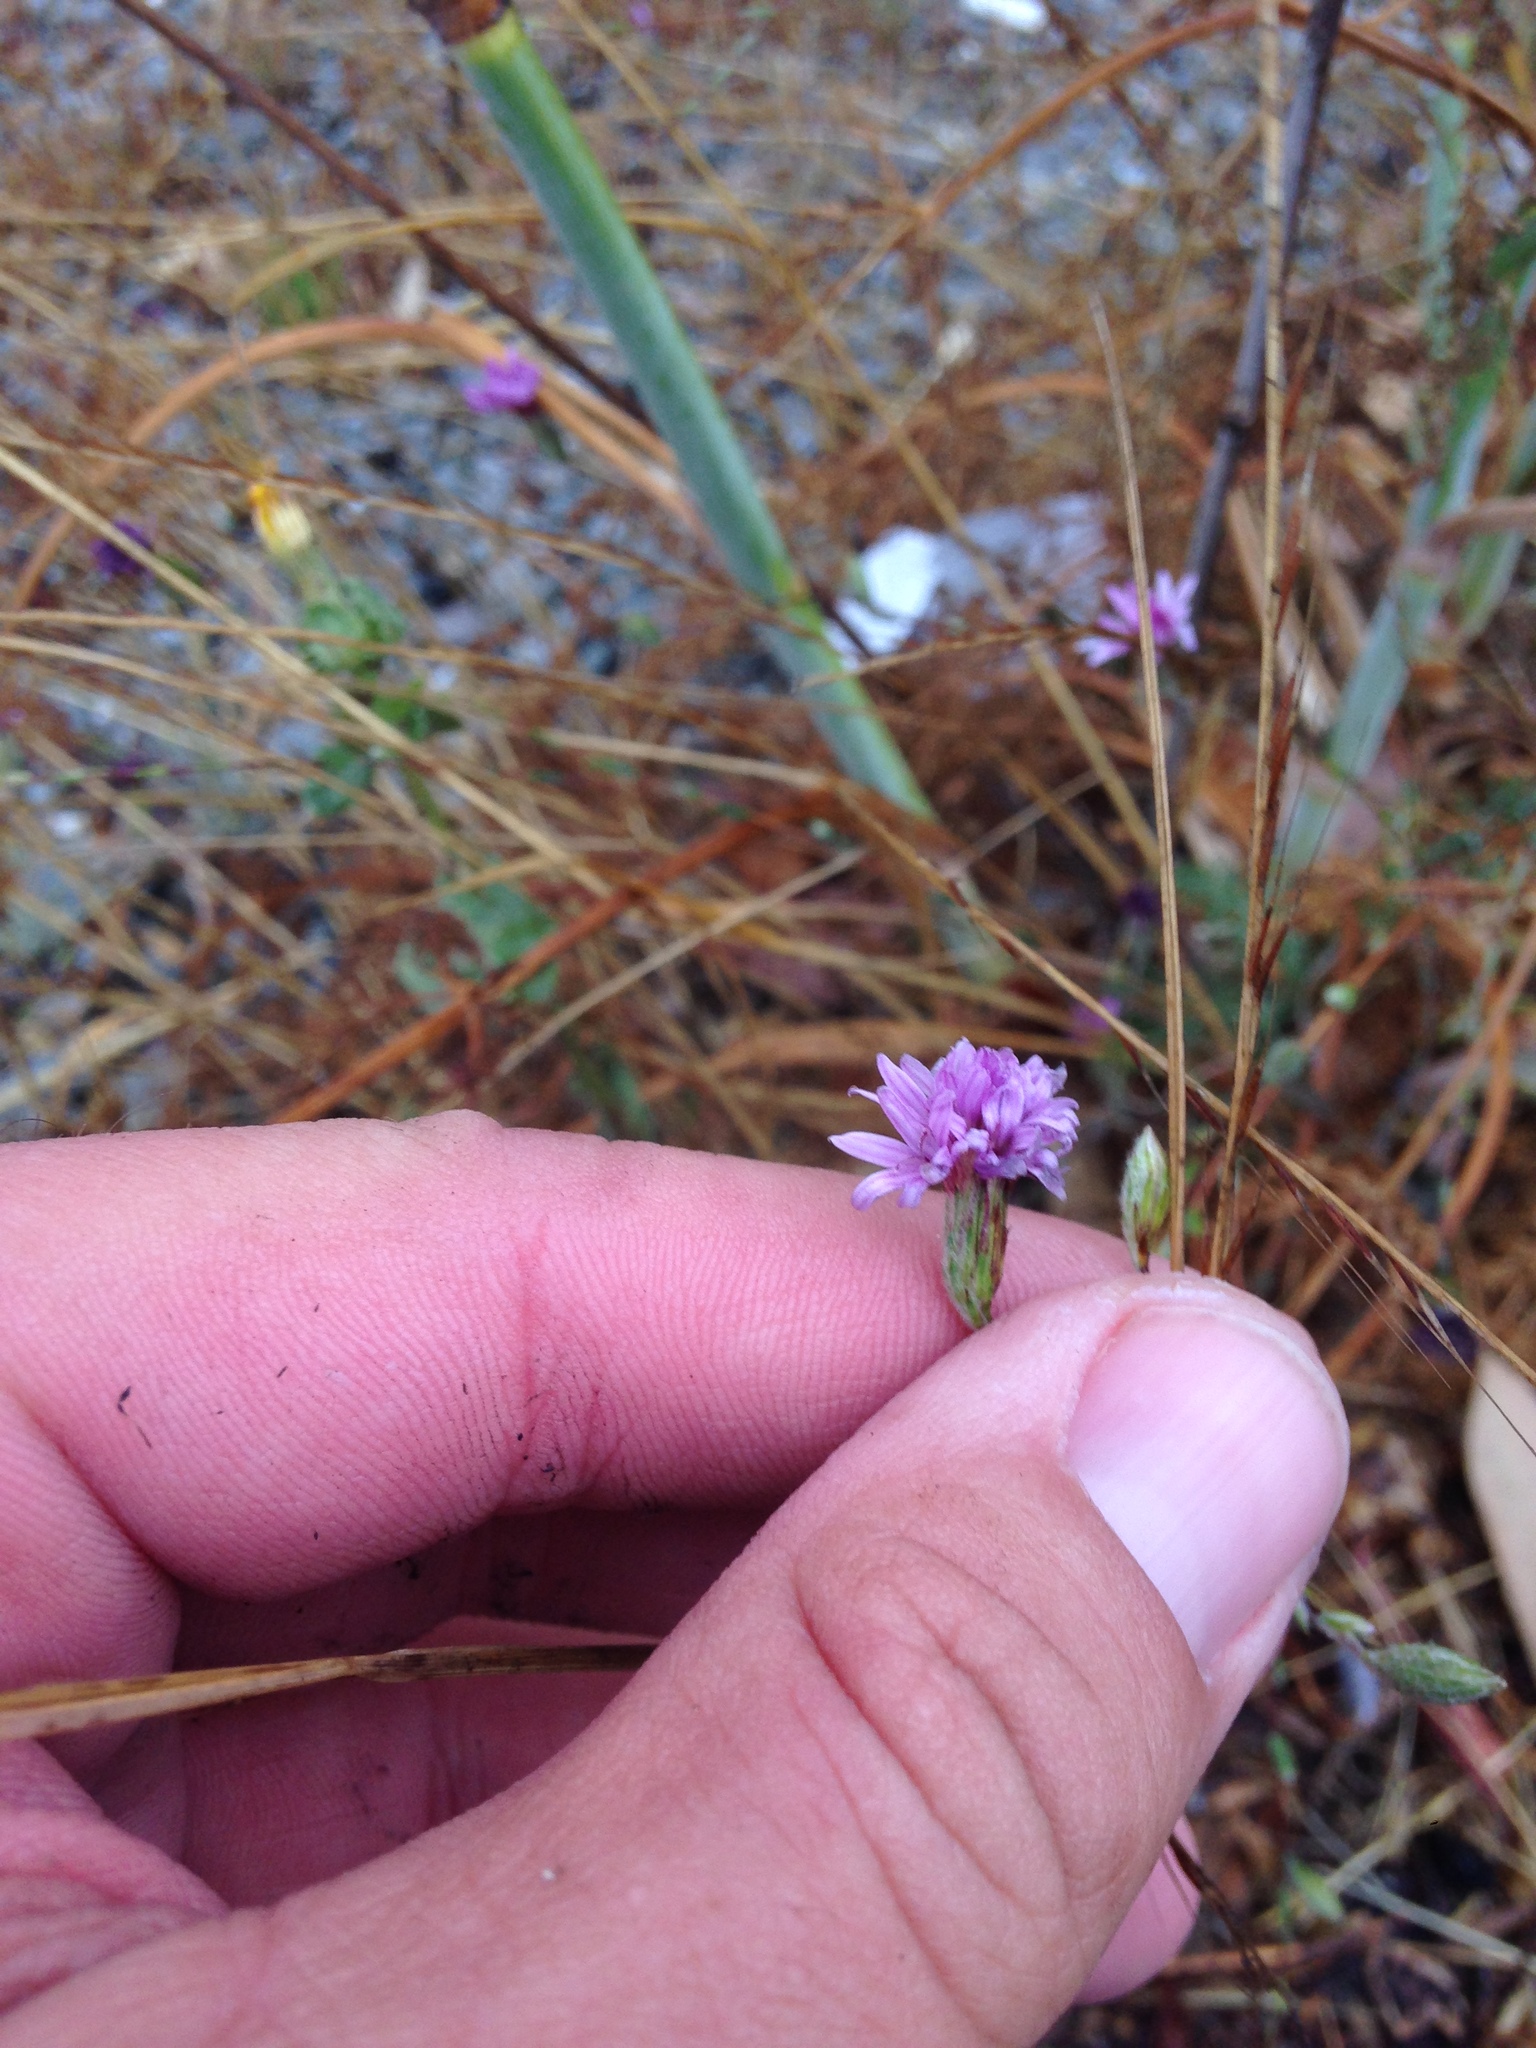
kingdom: Plantae
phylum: Tracheophyta
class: Magnoliopsida
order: Asterales
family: Asteraceae
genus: Lessingia
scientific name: Lessingia hololeuca
